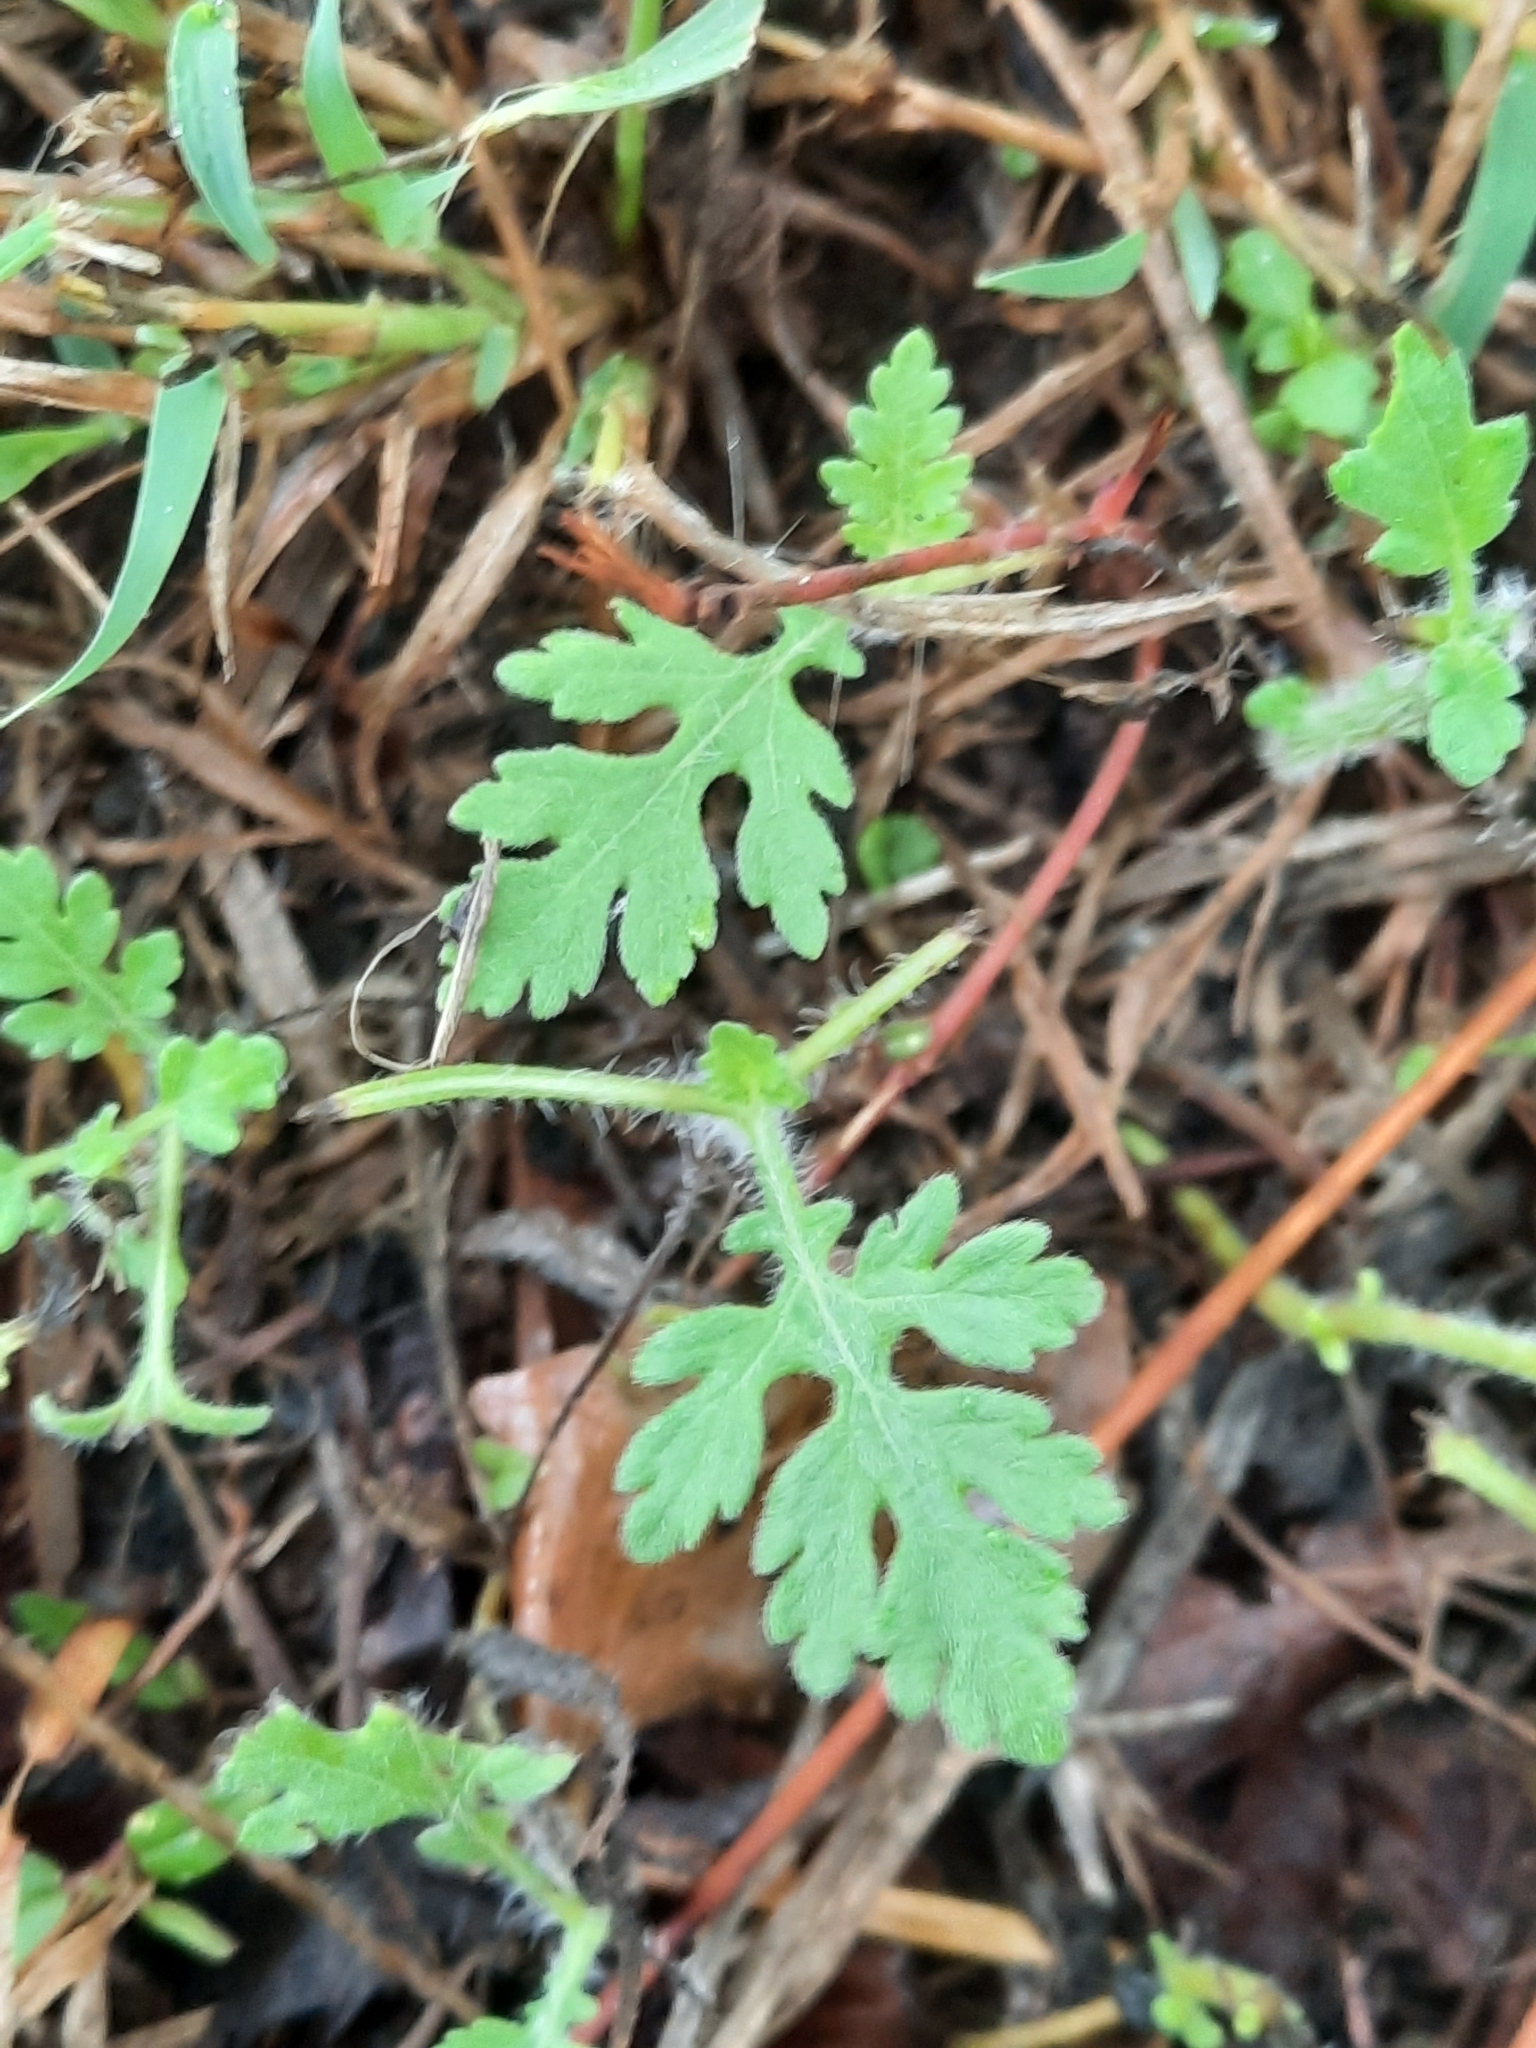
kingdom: Plantae
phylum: Tracheophyta
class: Magnoliopsida
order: Asterales
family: Asteraceae
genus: Parthenium
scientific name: Parthenium hysterophorus
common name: Santa maria feverfew
